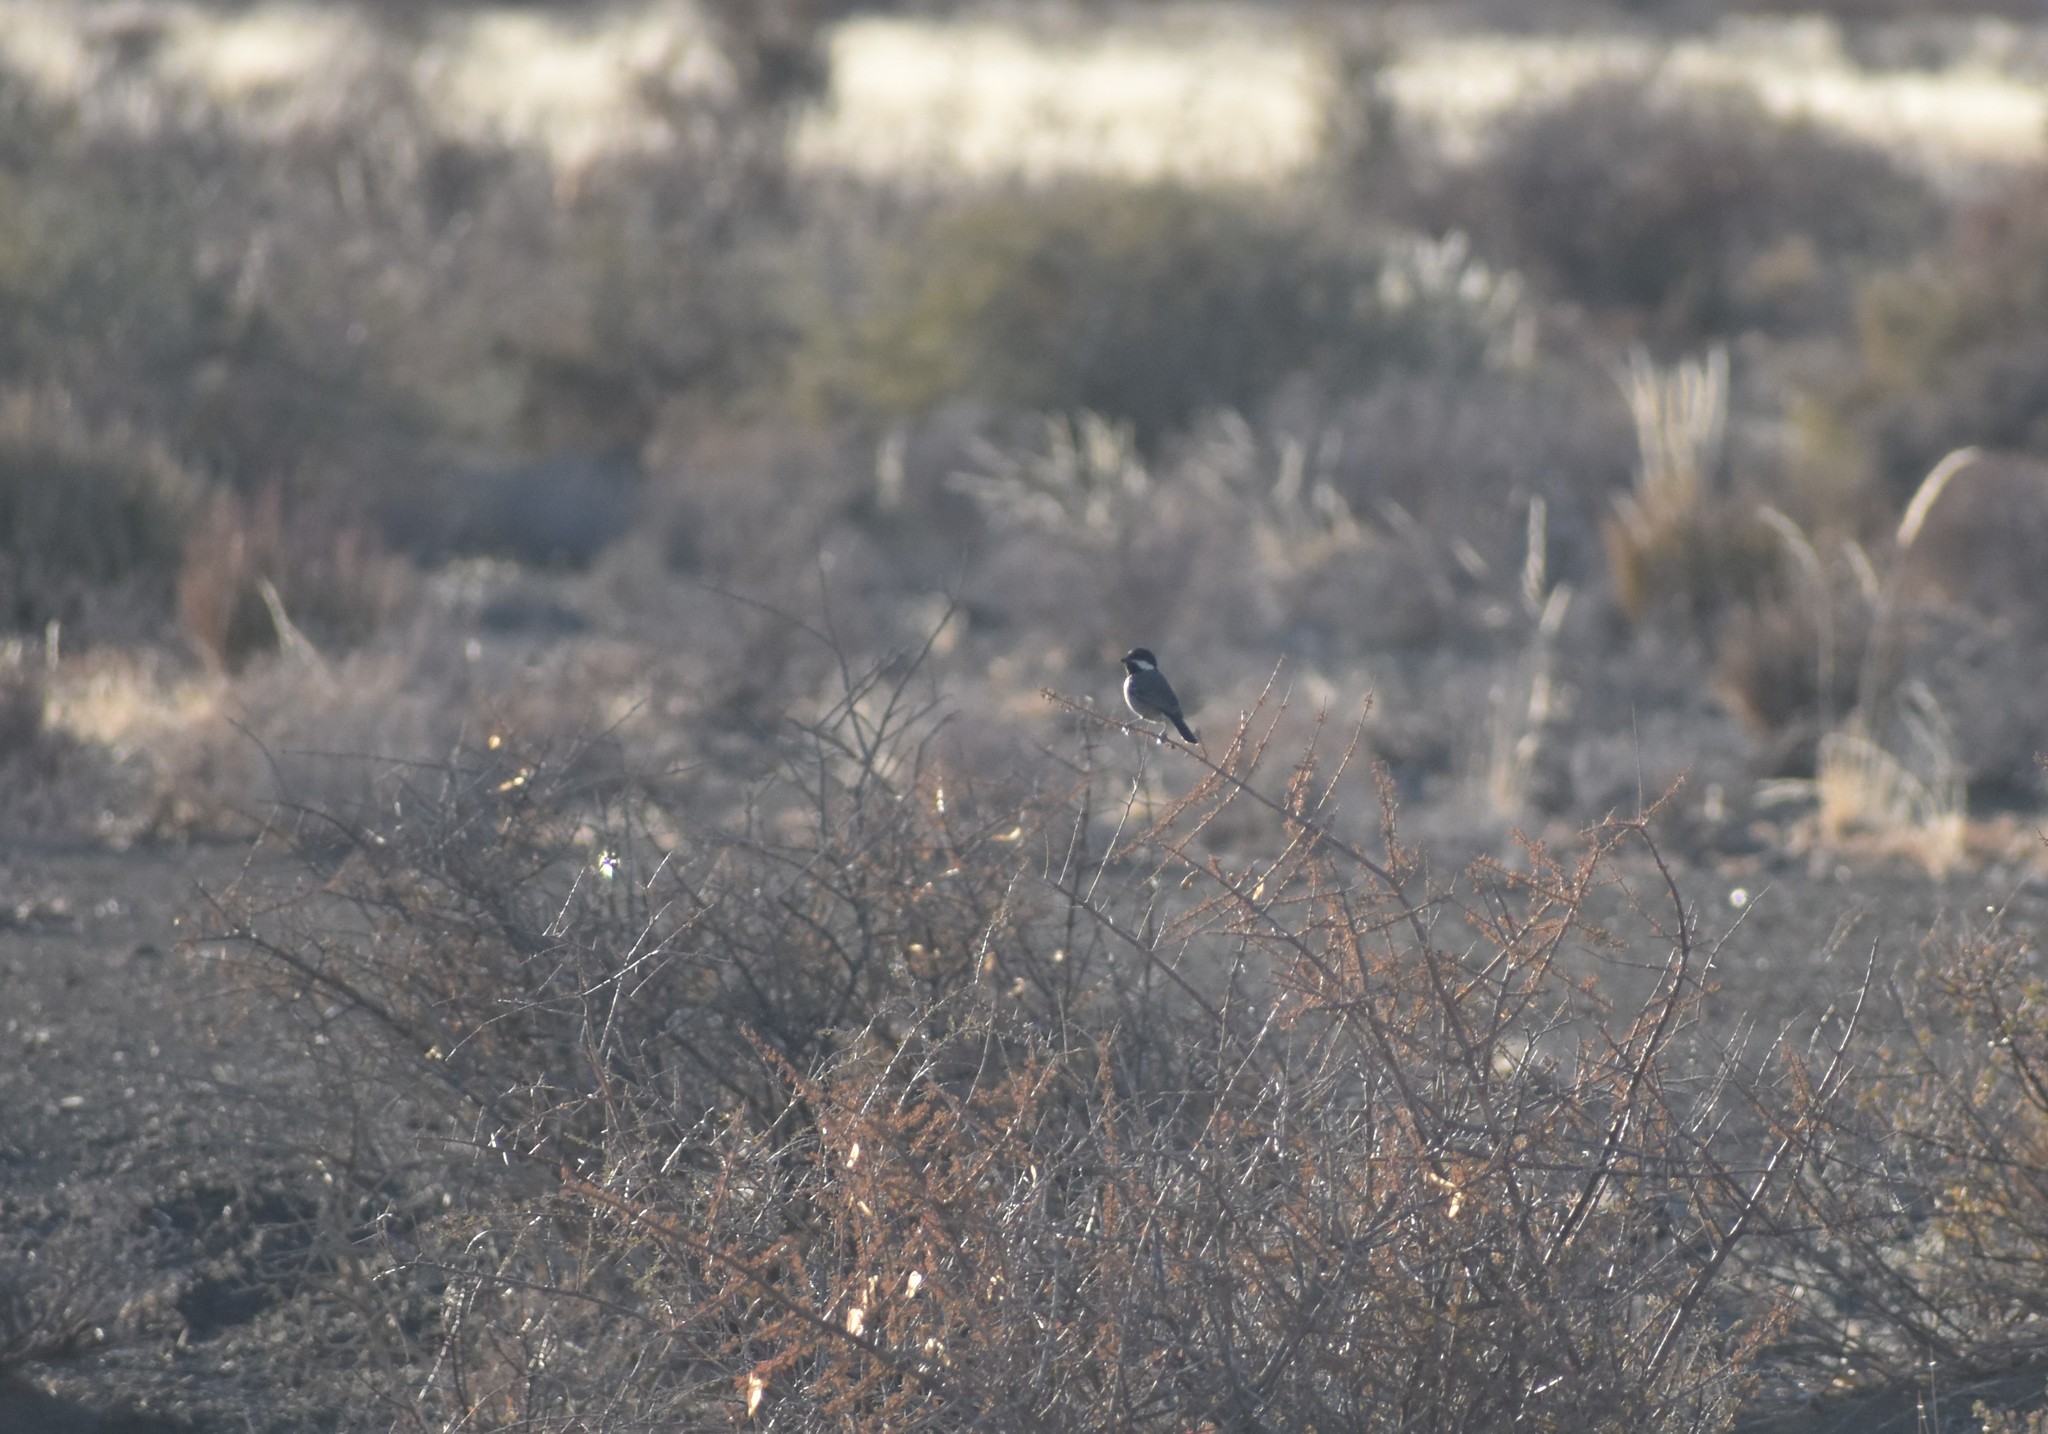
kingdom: Animalia
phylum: Chordata
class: Aves
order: Passeriformes
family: Paridae
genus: Parus
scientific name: Parus afer
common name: Grey tit
